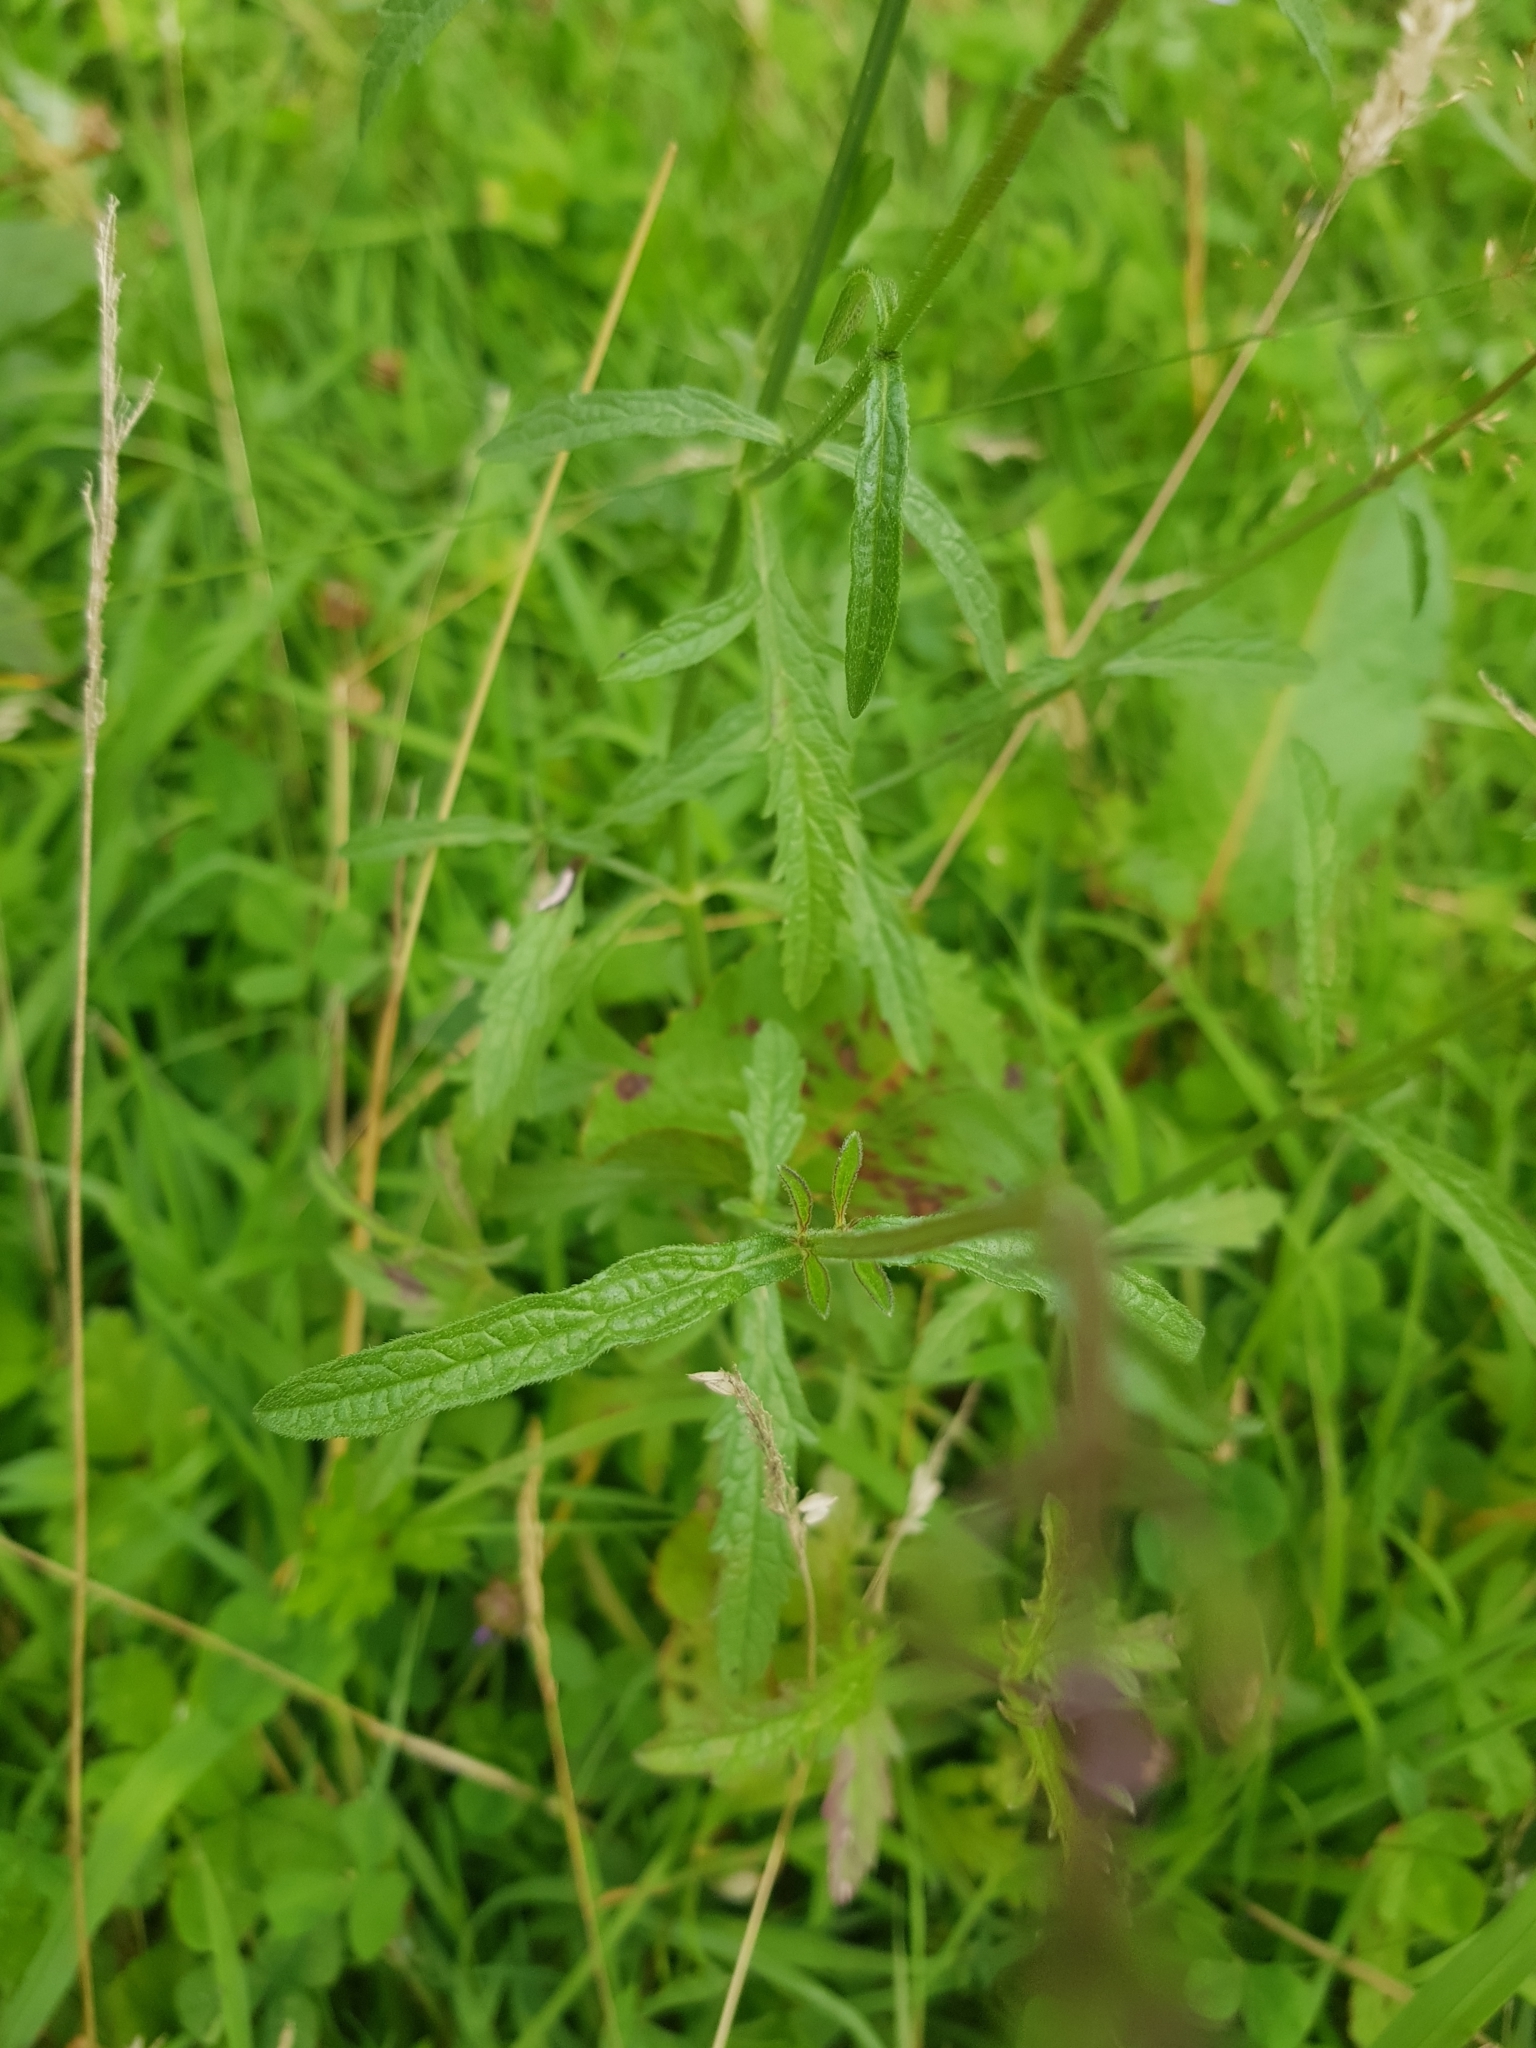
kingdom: Plantae
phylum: Tracheophyta
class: Magnoliopsida
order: Lamiales
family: Verbenaceae
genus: Verbena
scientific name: Verbena officinalis
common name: Vervain
